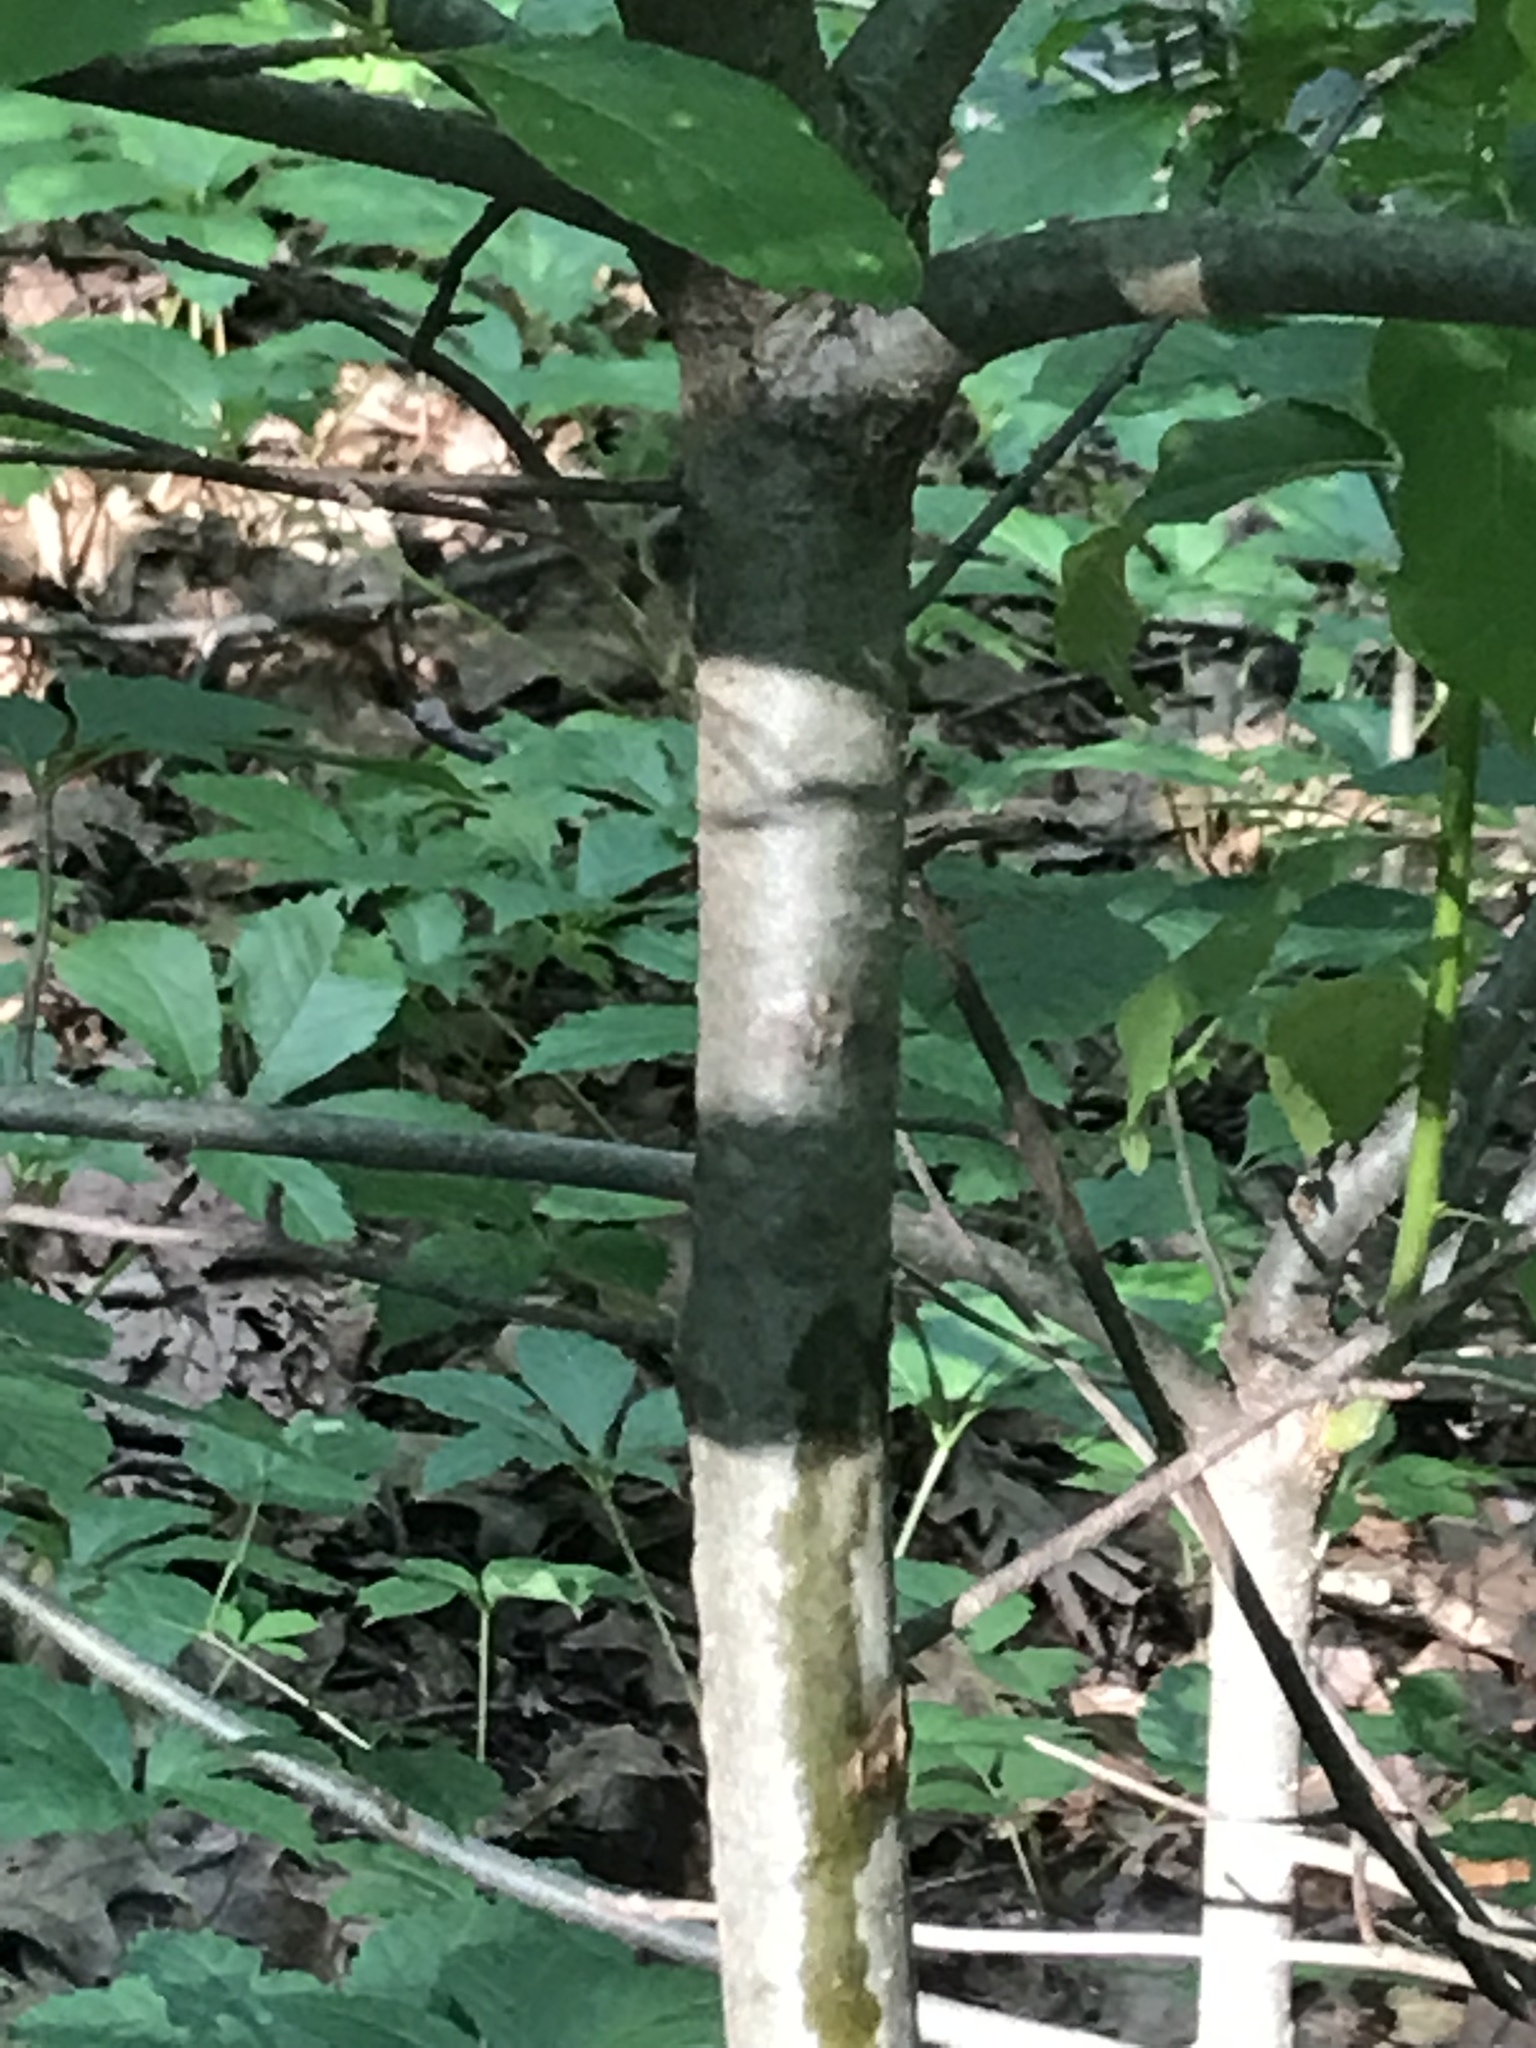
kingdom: Plantae
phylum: Tracheophyta
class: Magnoliopsida
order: Cornales
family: Nyssaceae
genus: Nyssa
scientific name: Nyssa sylvatica
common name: Black tupelo
